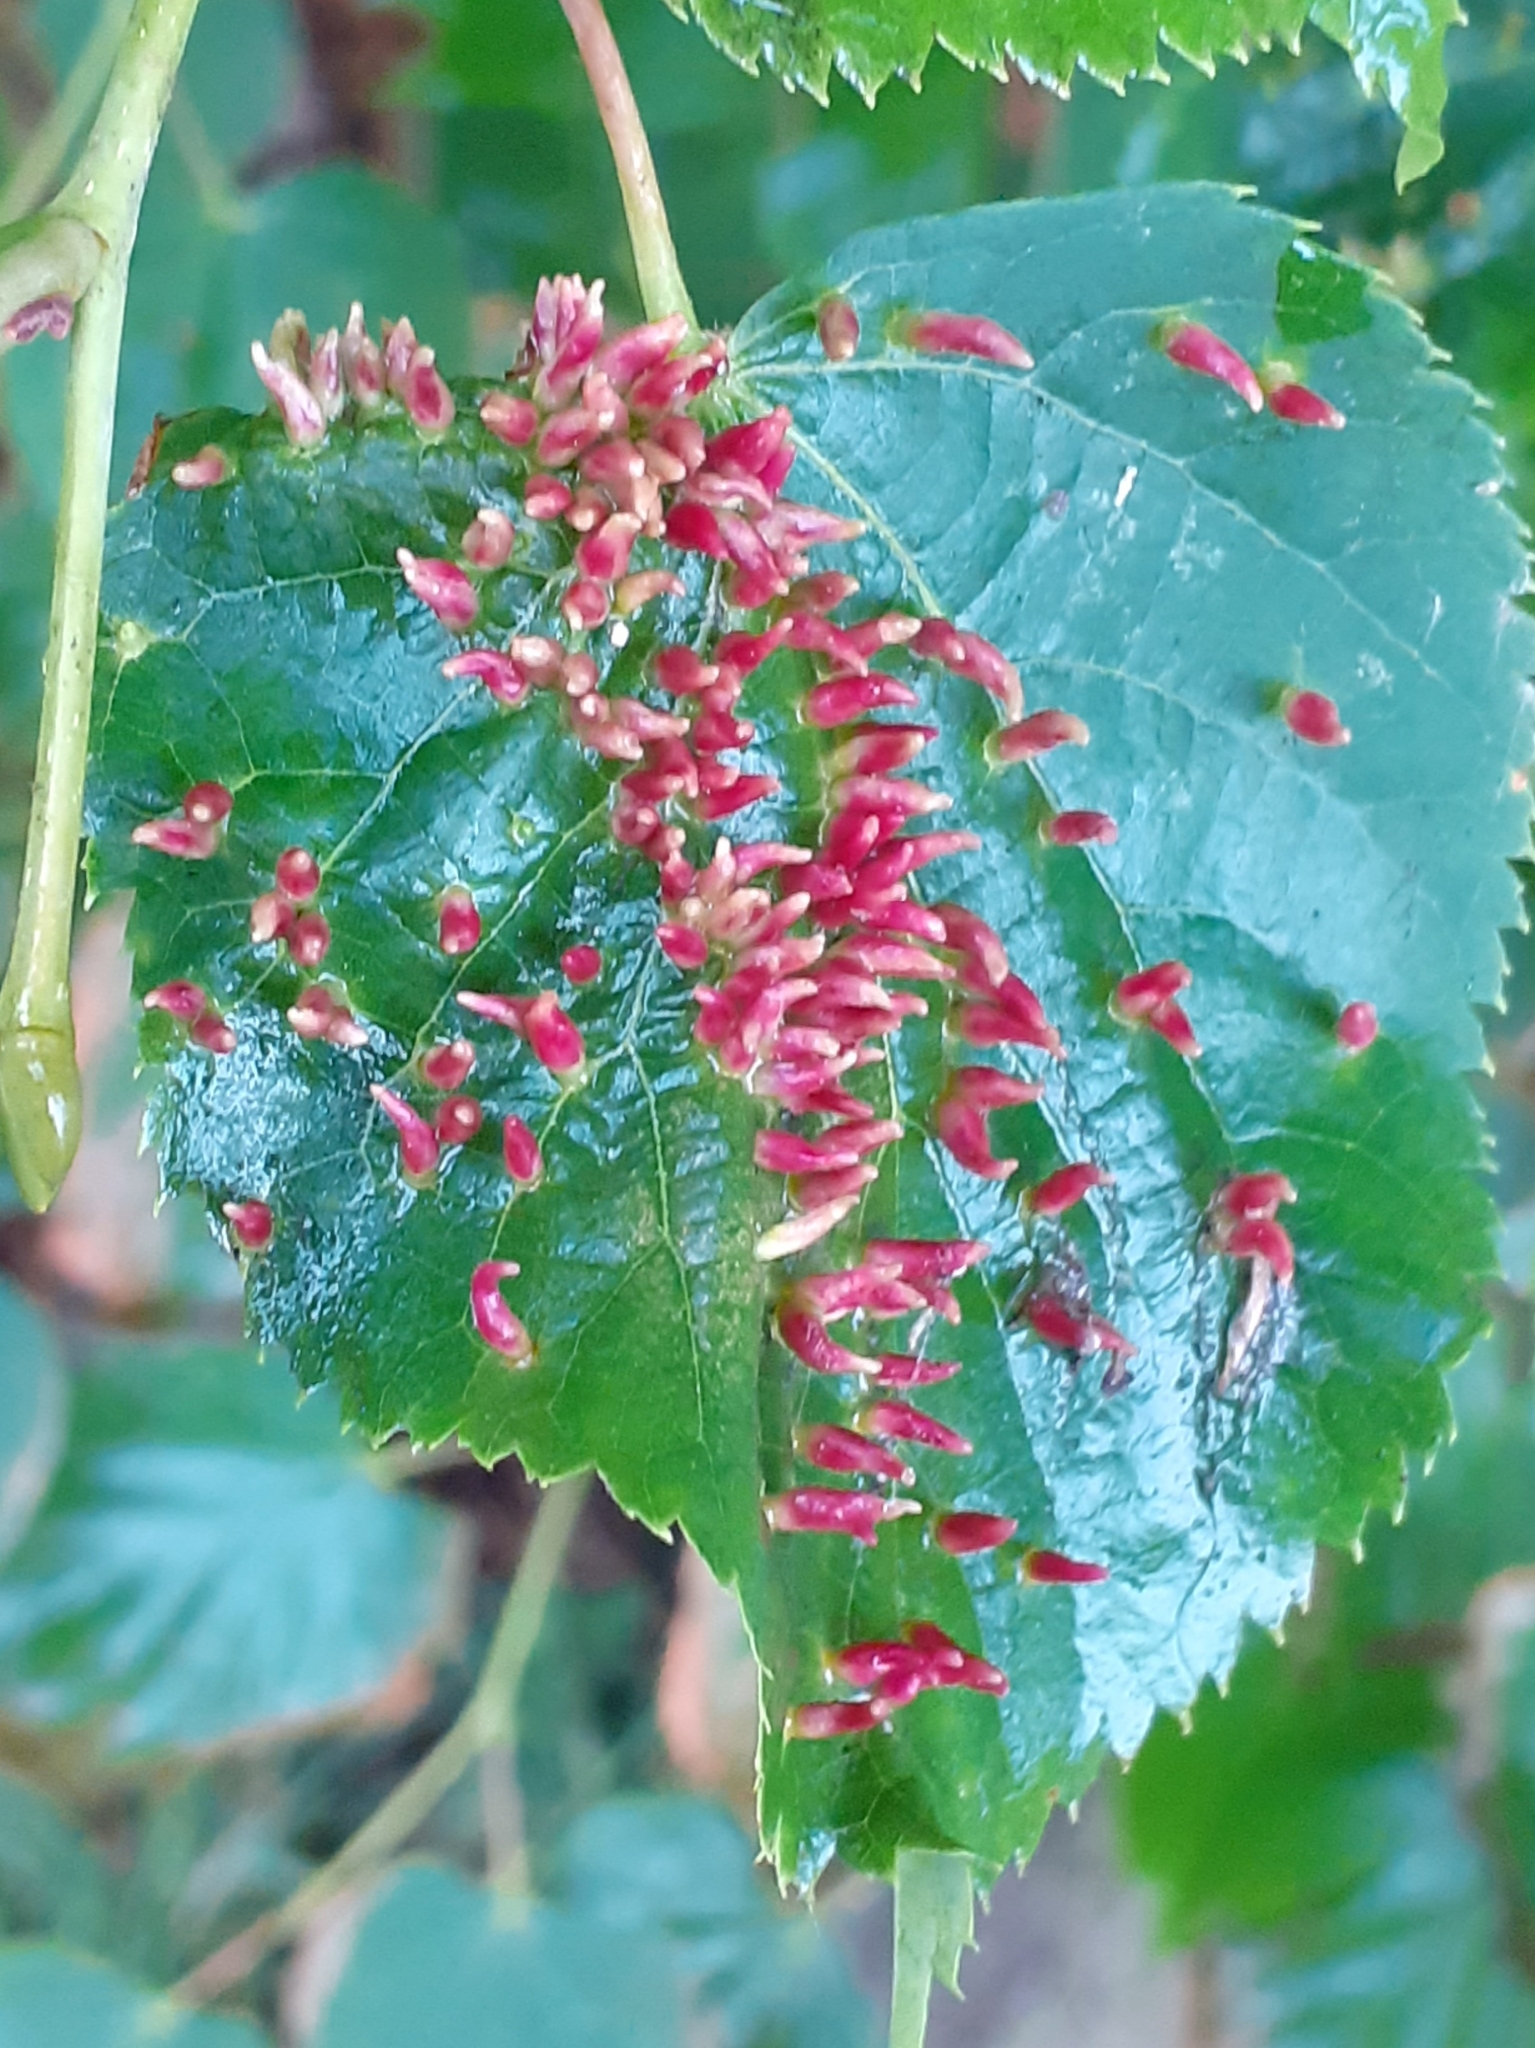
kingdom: Animalia
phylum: Arthropoda
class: Arachnida
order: Trombidiformes
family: Eriophyidae
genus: Eriophyes
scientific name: Eriophyes tiliae
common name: Red nail gall mite
